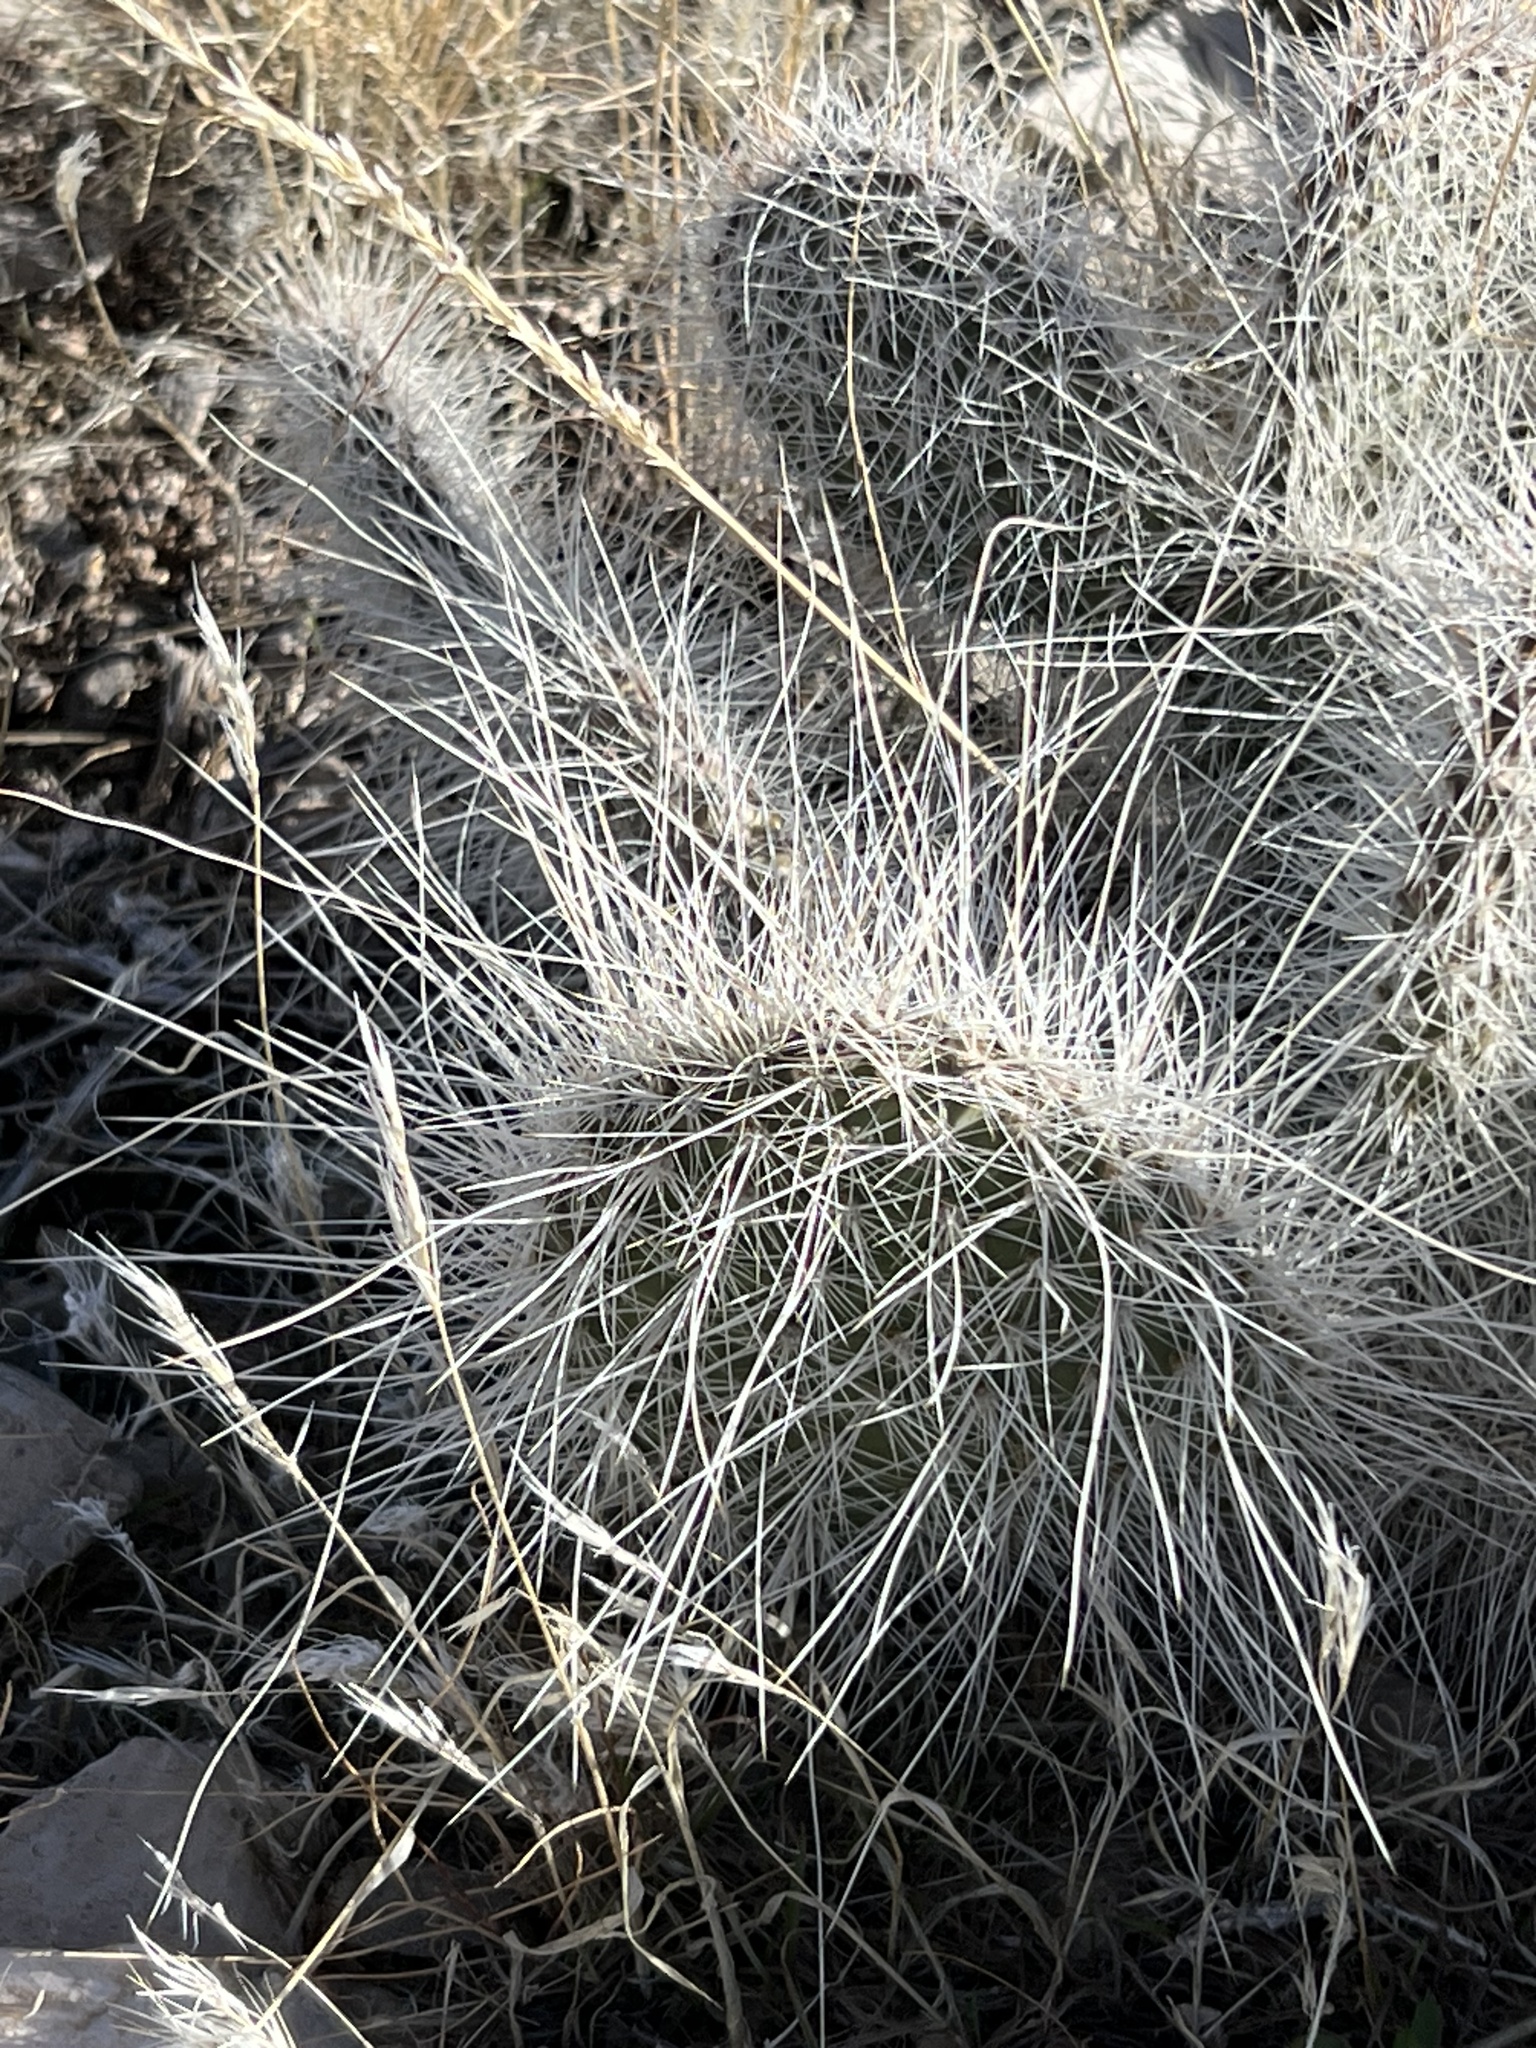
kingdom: Plantae
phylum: Tracheophyta
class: Magnoliopsida
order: Caryophyllales
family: Cactaceae
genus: Opuntia
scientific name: Opuntia polyacantha
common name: Plains prickly-pear
